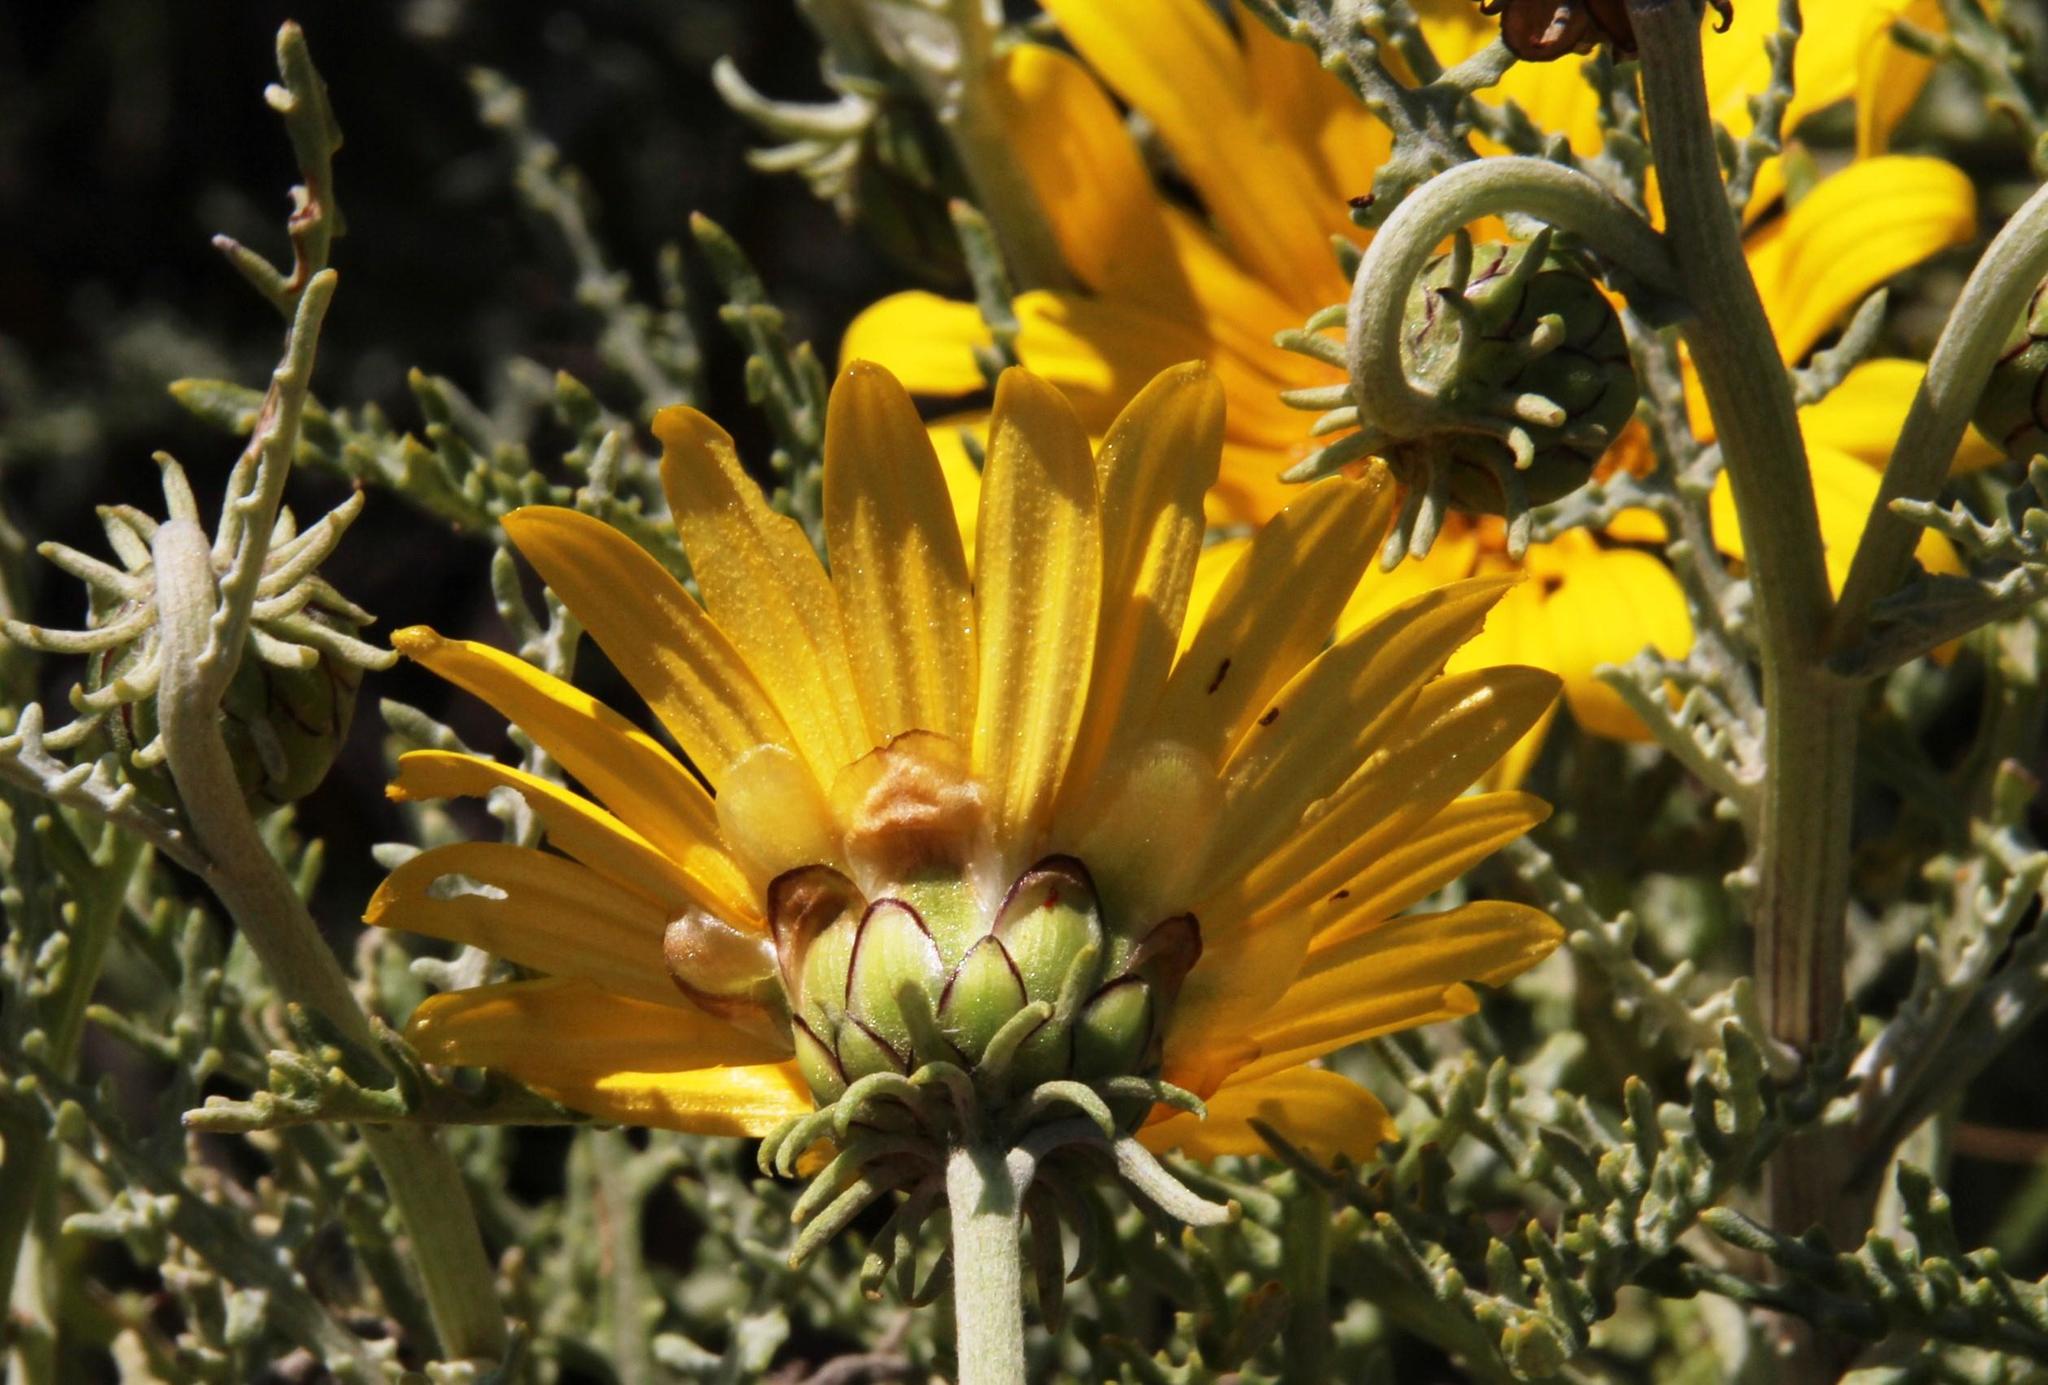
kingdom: Plantae
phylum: Tracheophyta
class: Magnoliopsida
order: Asterales
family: Asteraceae
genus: Arctotis
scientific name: Arctotis laciniata
